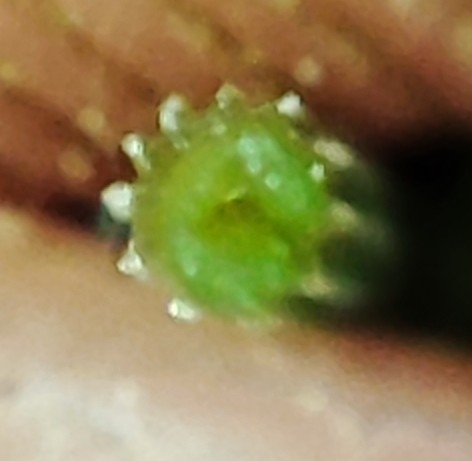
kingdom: Plantae
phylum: Tracheophyta
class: Polypodiopsida
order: Equisetales
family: Equisetaceae
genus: Equisetum
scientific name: Equisetum pratense
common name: Meadow horsetail
